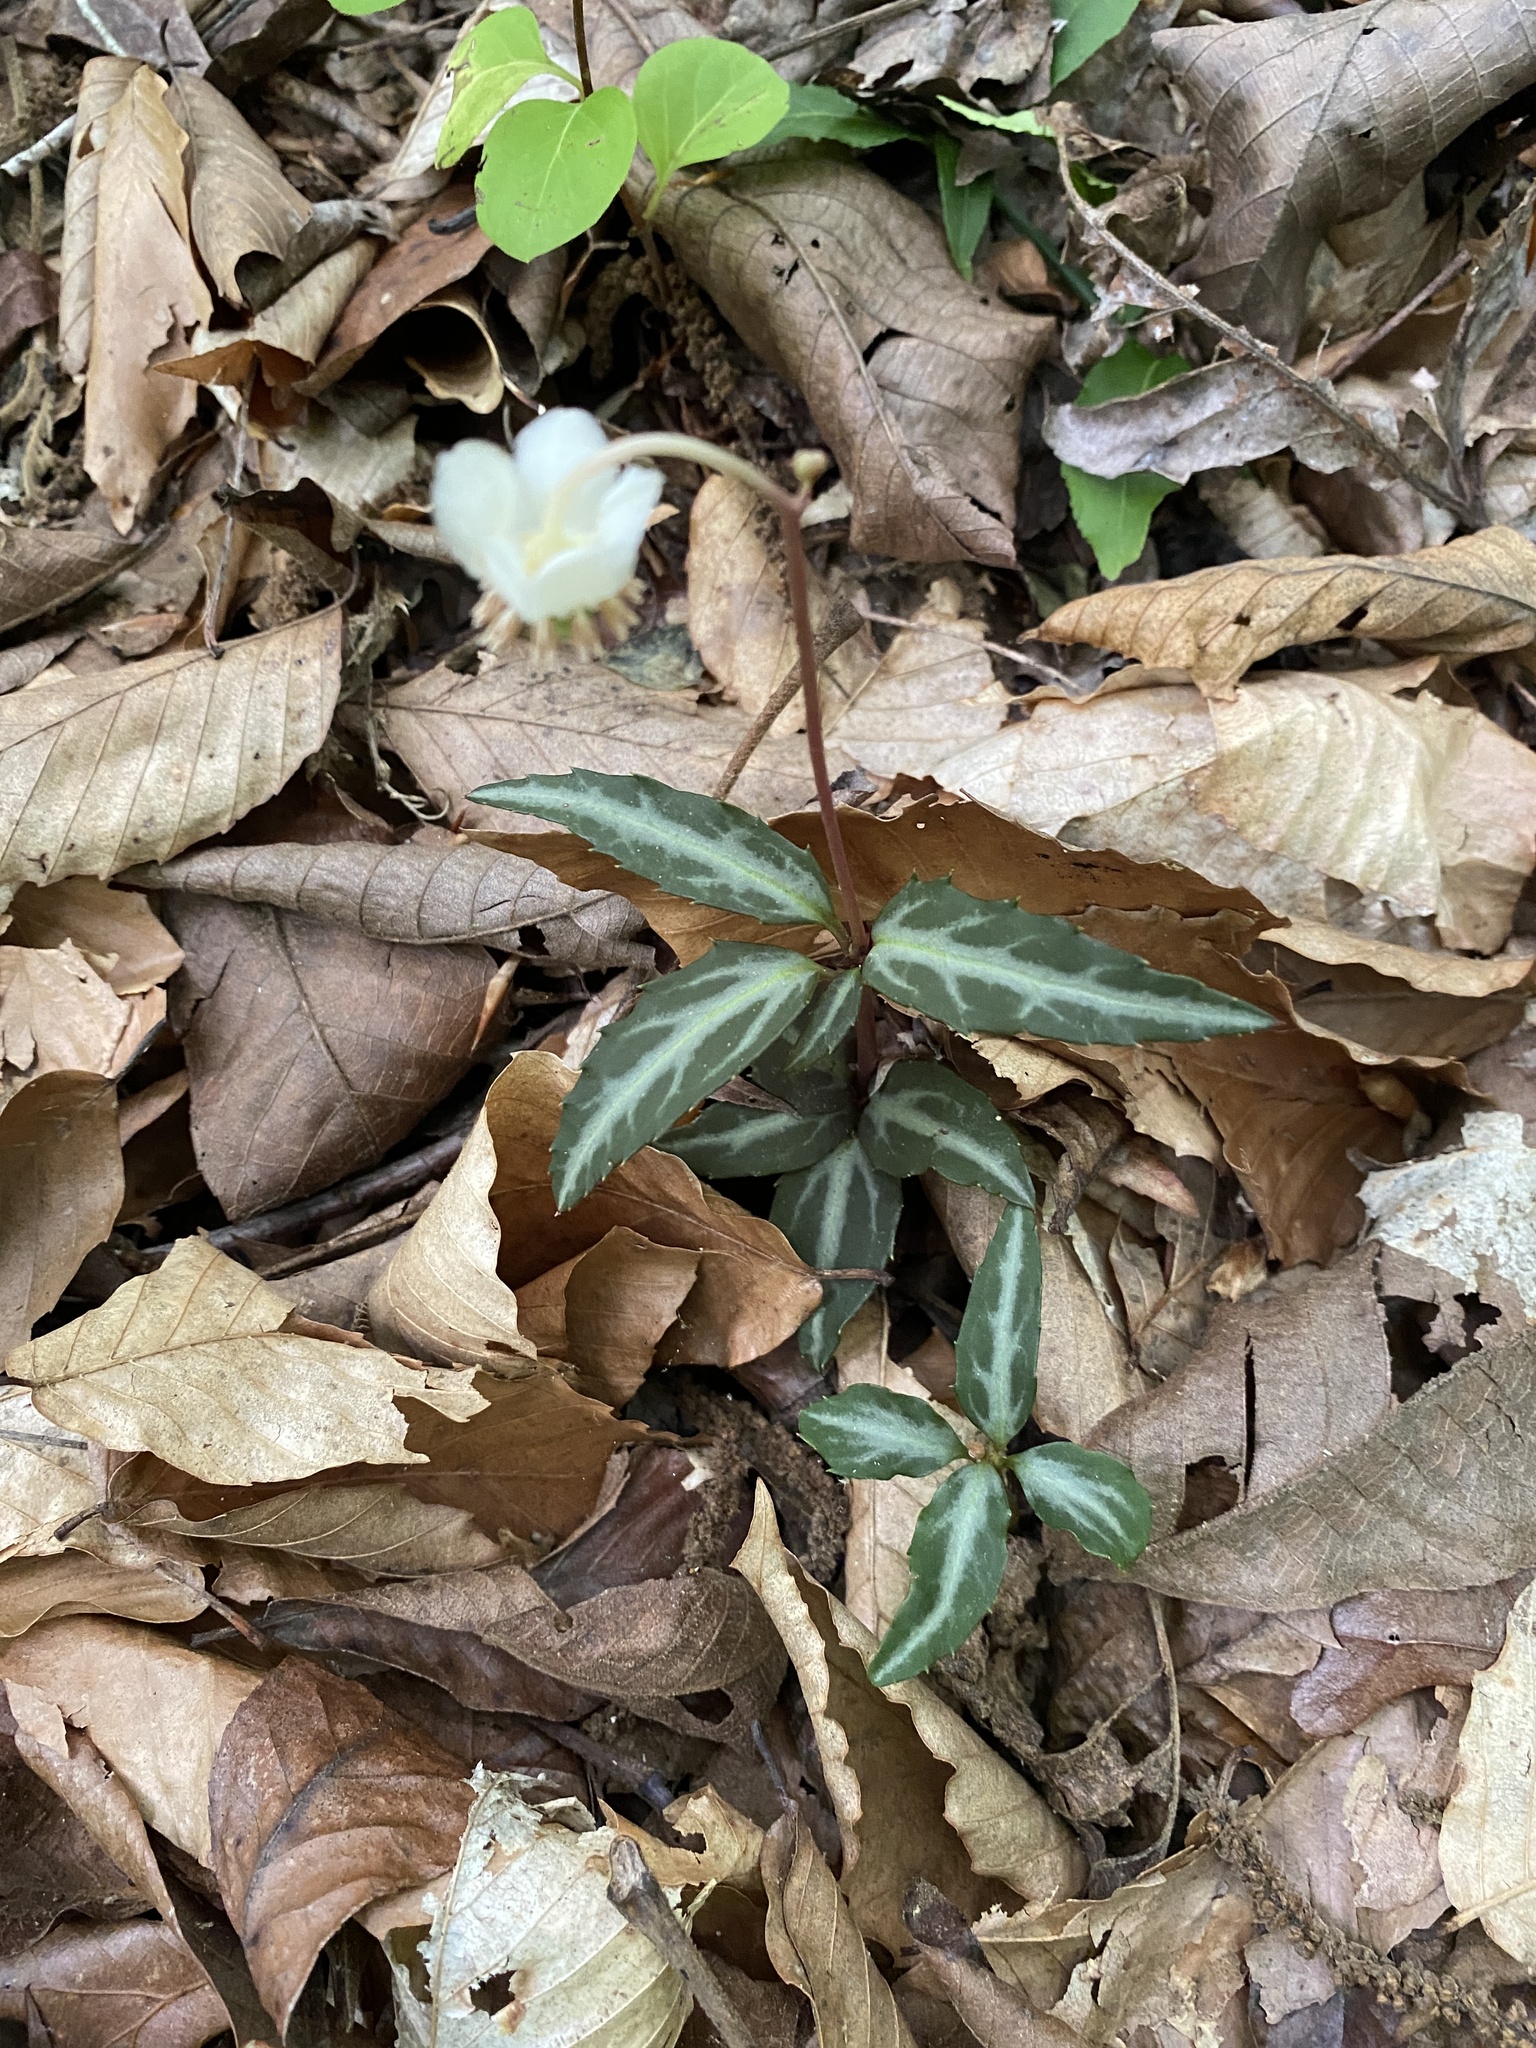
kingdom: Plantae
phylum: Tracheophyta
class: Magnoliopsida
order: Ericales
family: Ericaceae
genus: Chimaphila
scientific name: Chimaphila maculata
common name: Spotted pipsissewa
